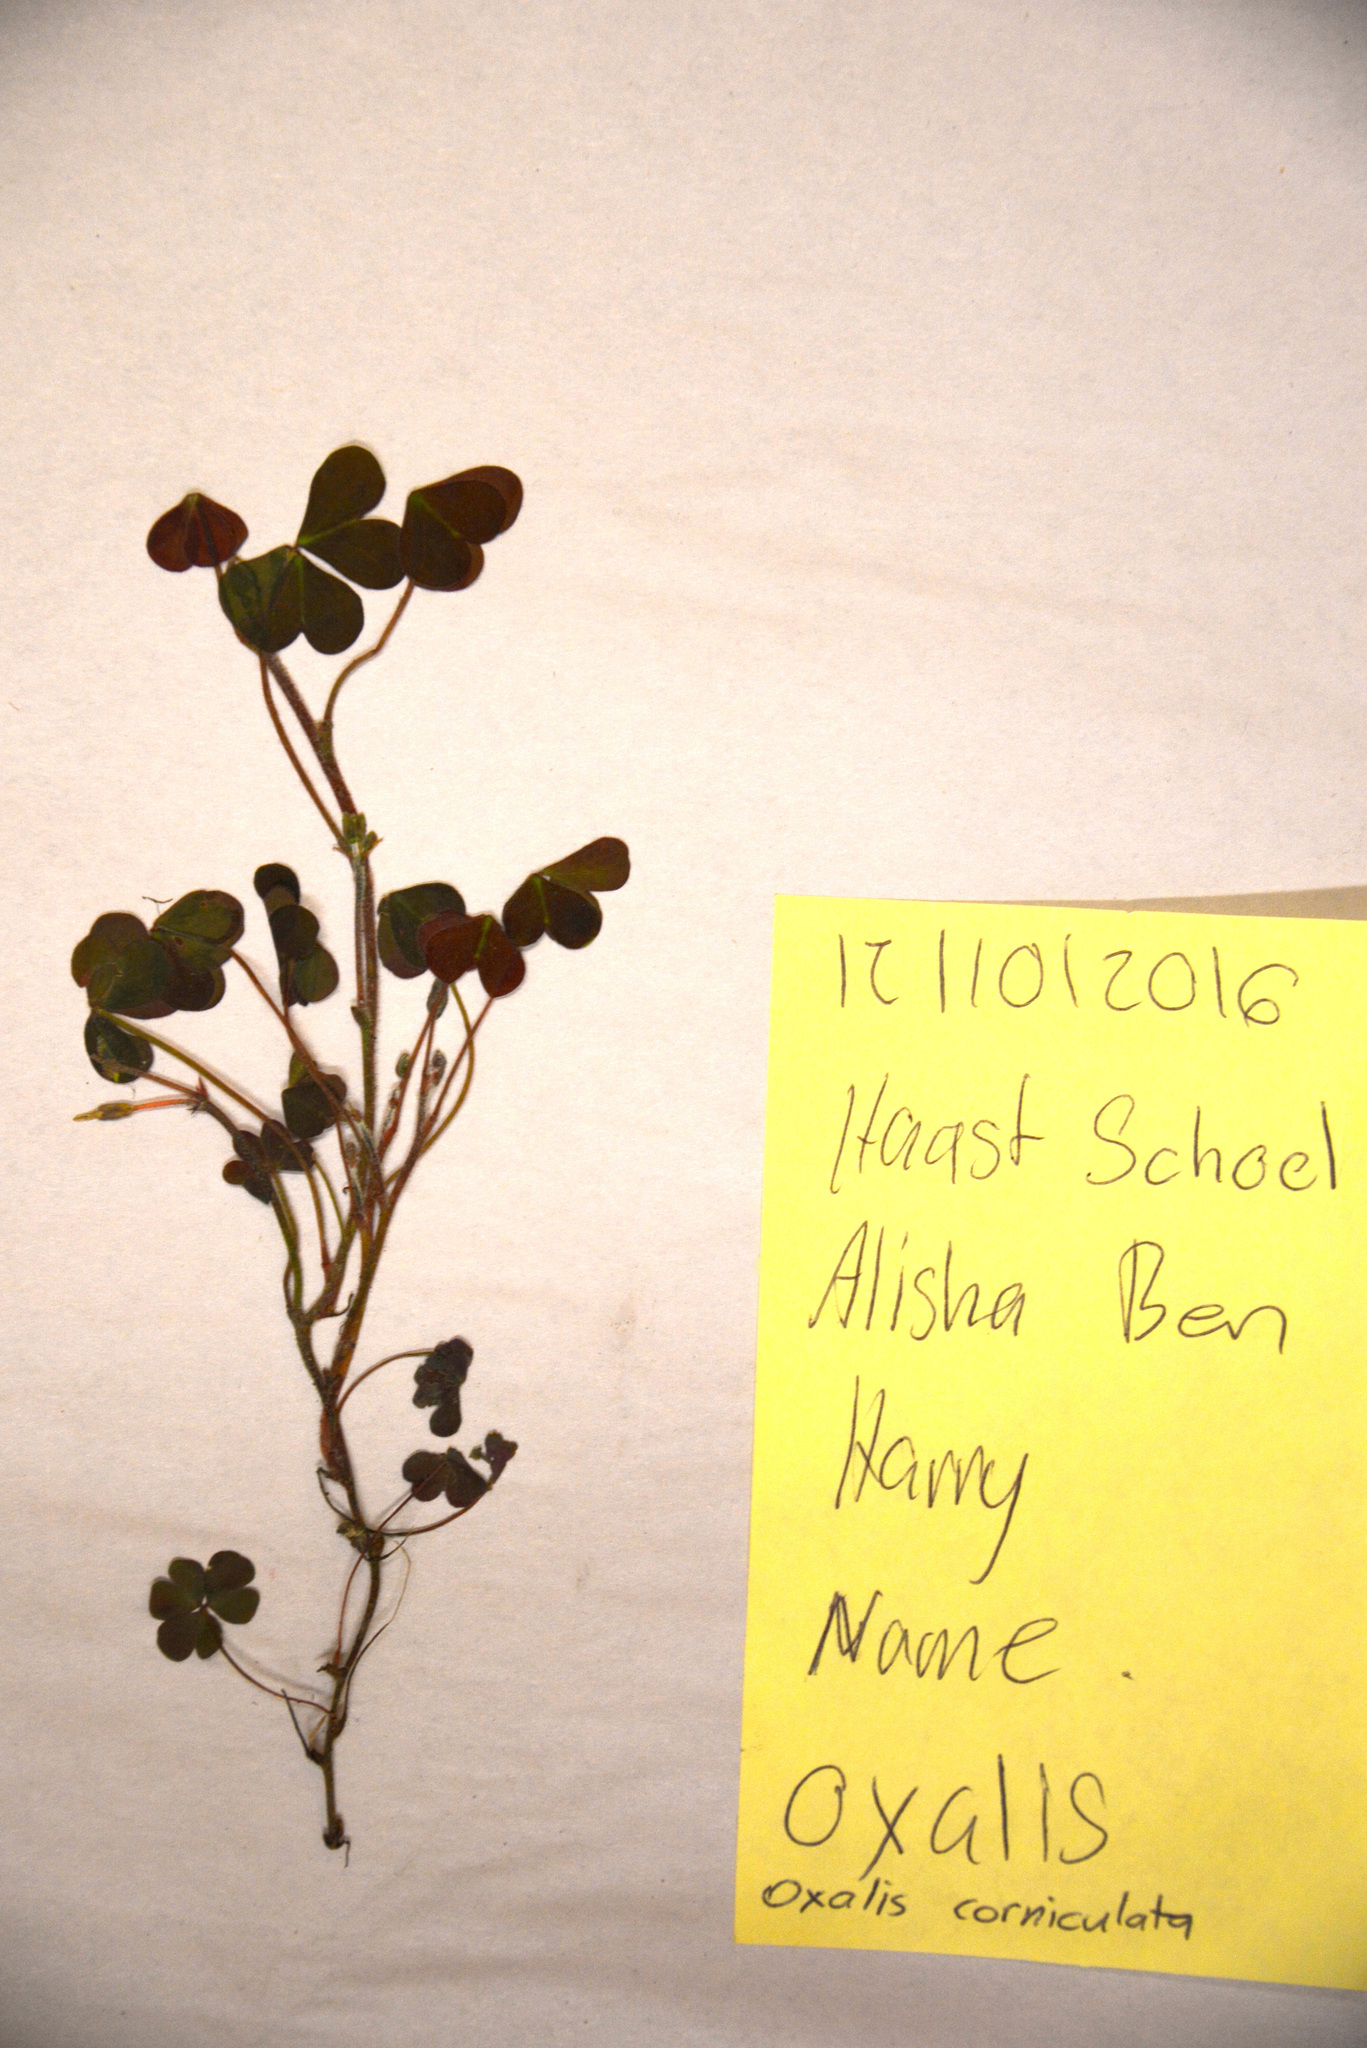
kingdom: Plantae
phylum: Tracheophyta
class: Magnoliopsida
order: Oxalidales
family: Oxalidaceae
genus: Oxalis
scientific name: Oxalis corniculata
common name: Procumbent yellow-sorrel
